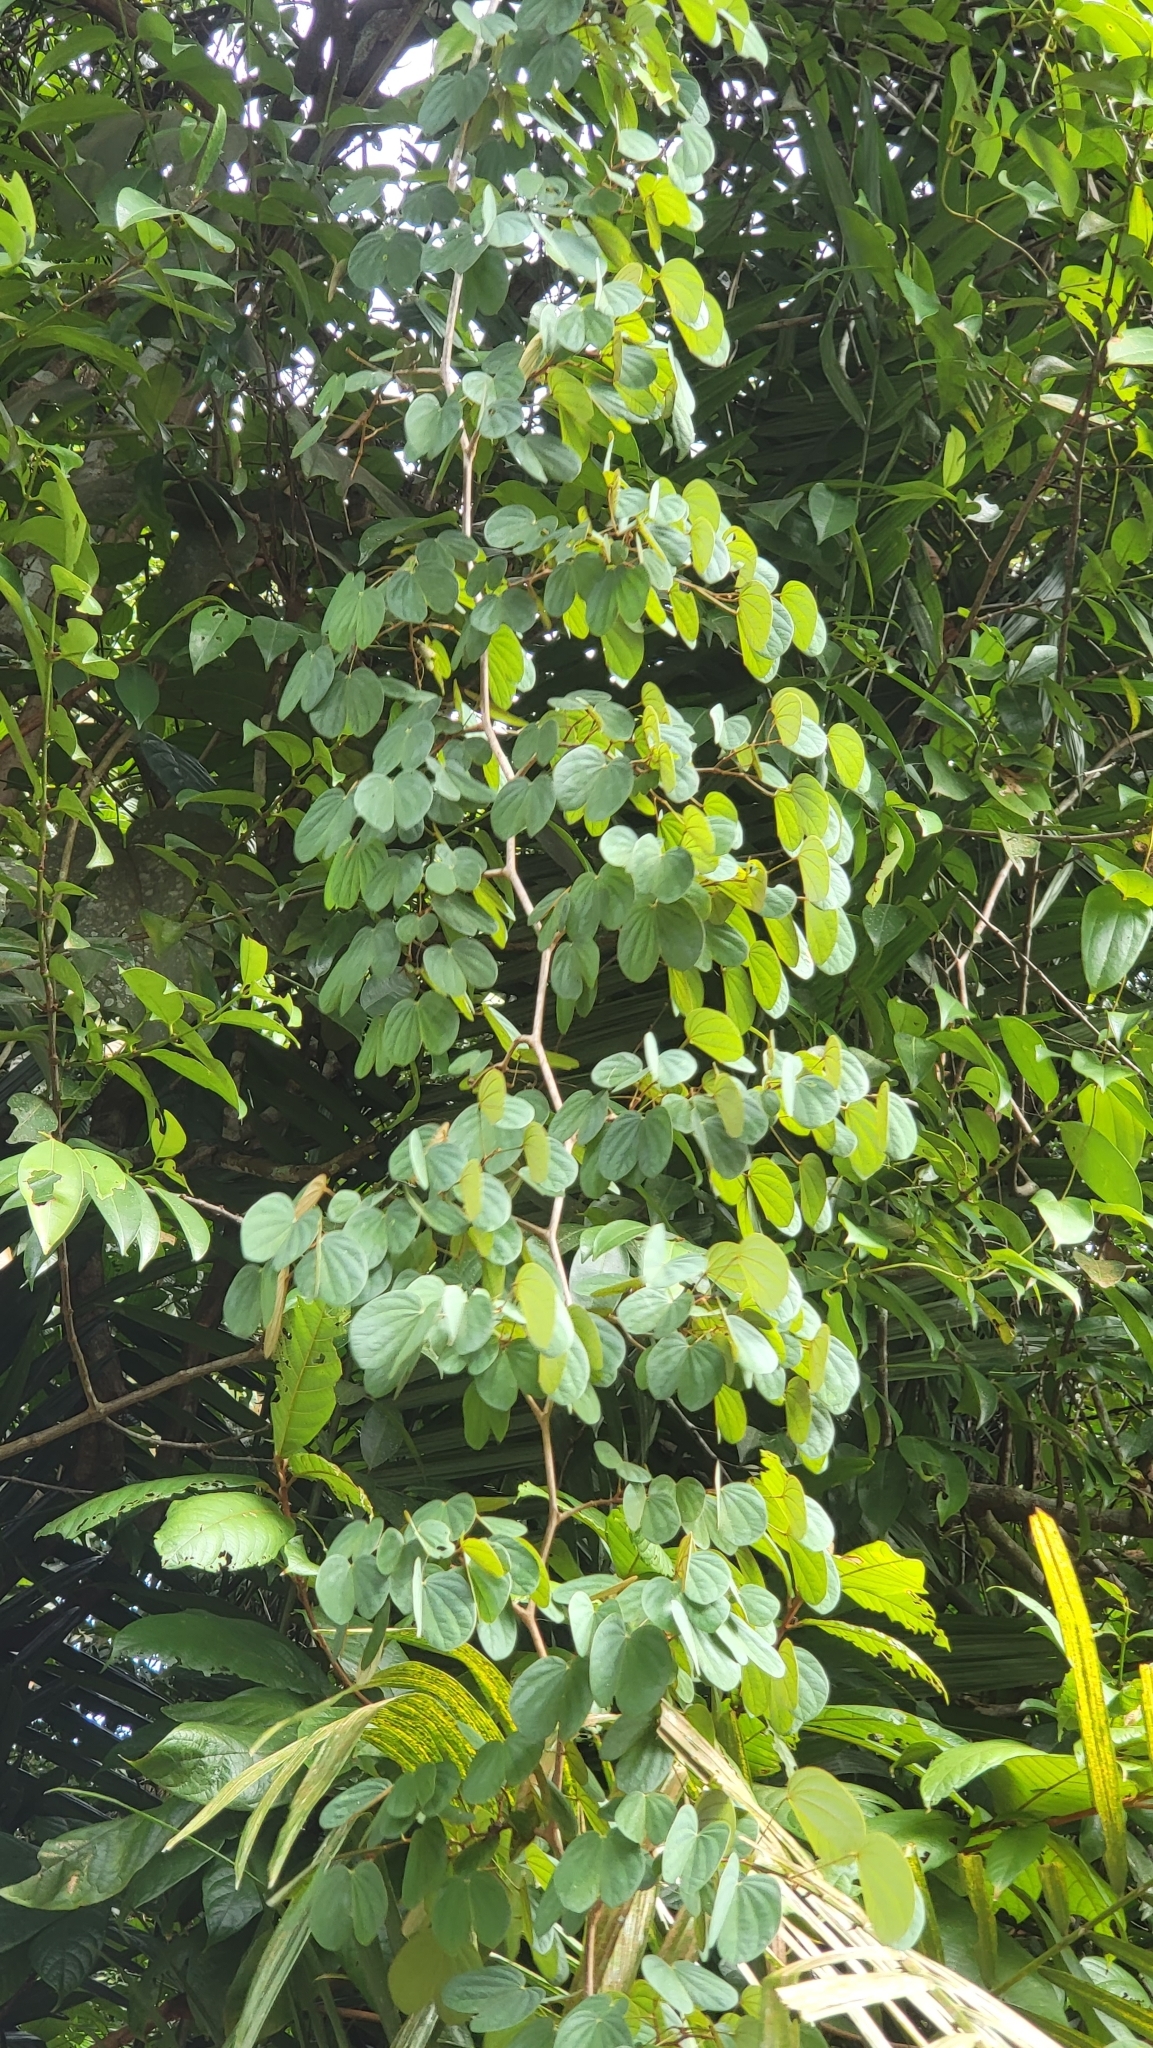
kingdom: Plantae
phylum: Tracheophyta
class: Magnoliopsida
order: Fabales
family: Fabaceae
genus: Phanera
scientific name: Phanera semibifida
